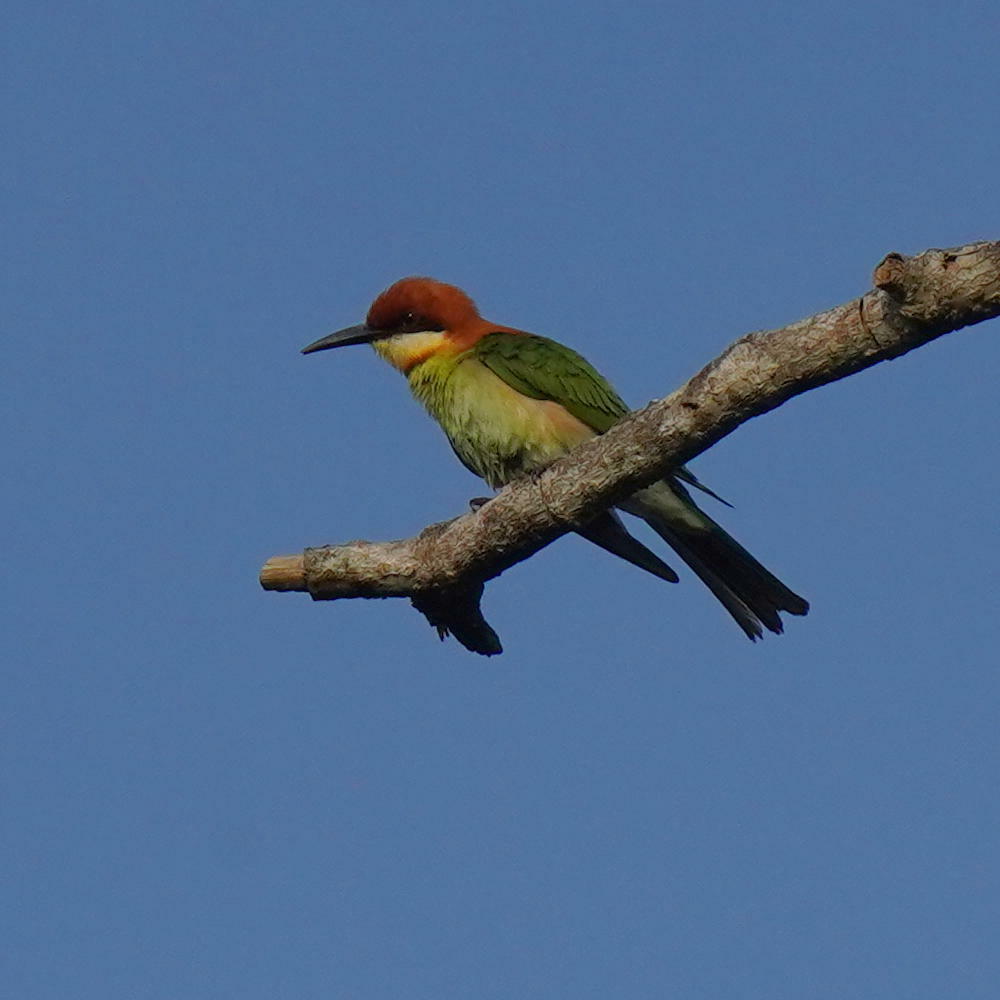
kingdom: Animalia
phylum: Chordata
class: Aves
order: Coraciiformes
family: Meropidae
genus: Merops
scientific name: Merops leschenaulti
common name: Chestnut-headed bee-eater
